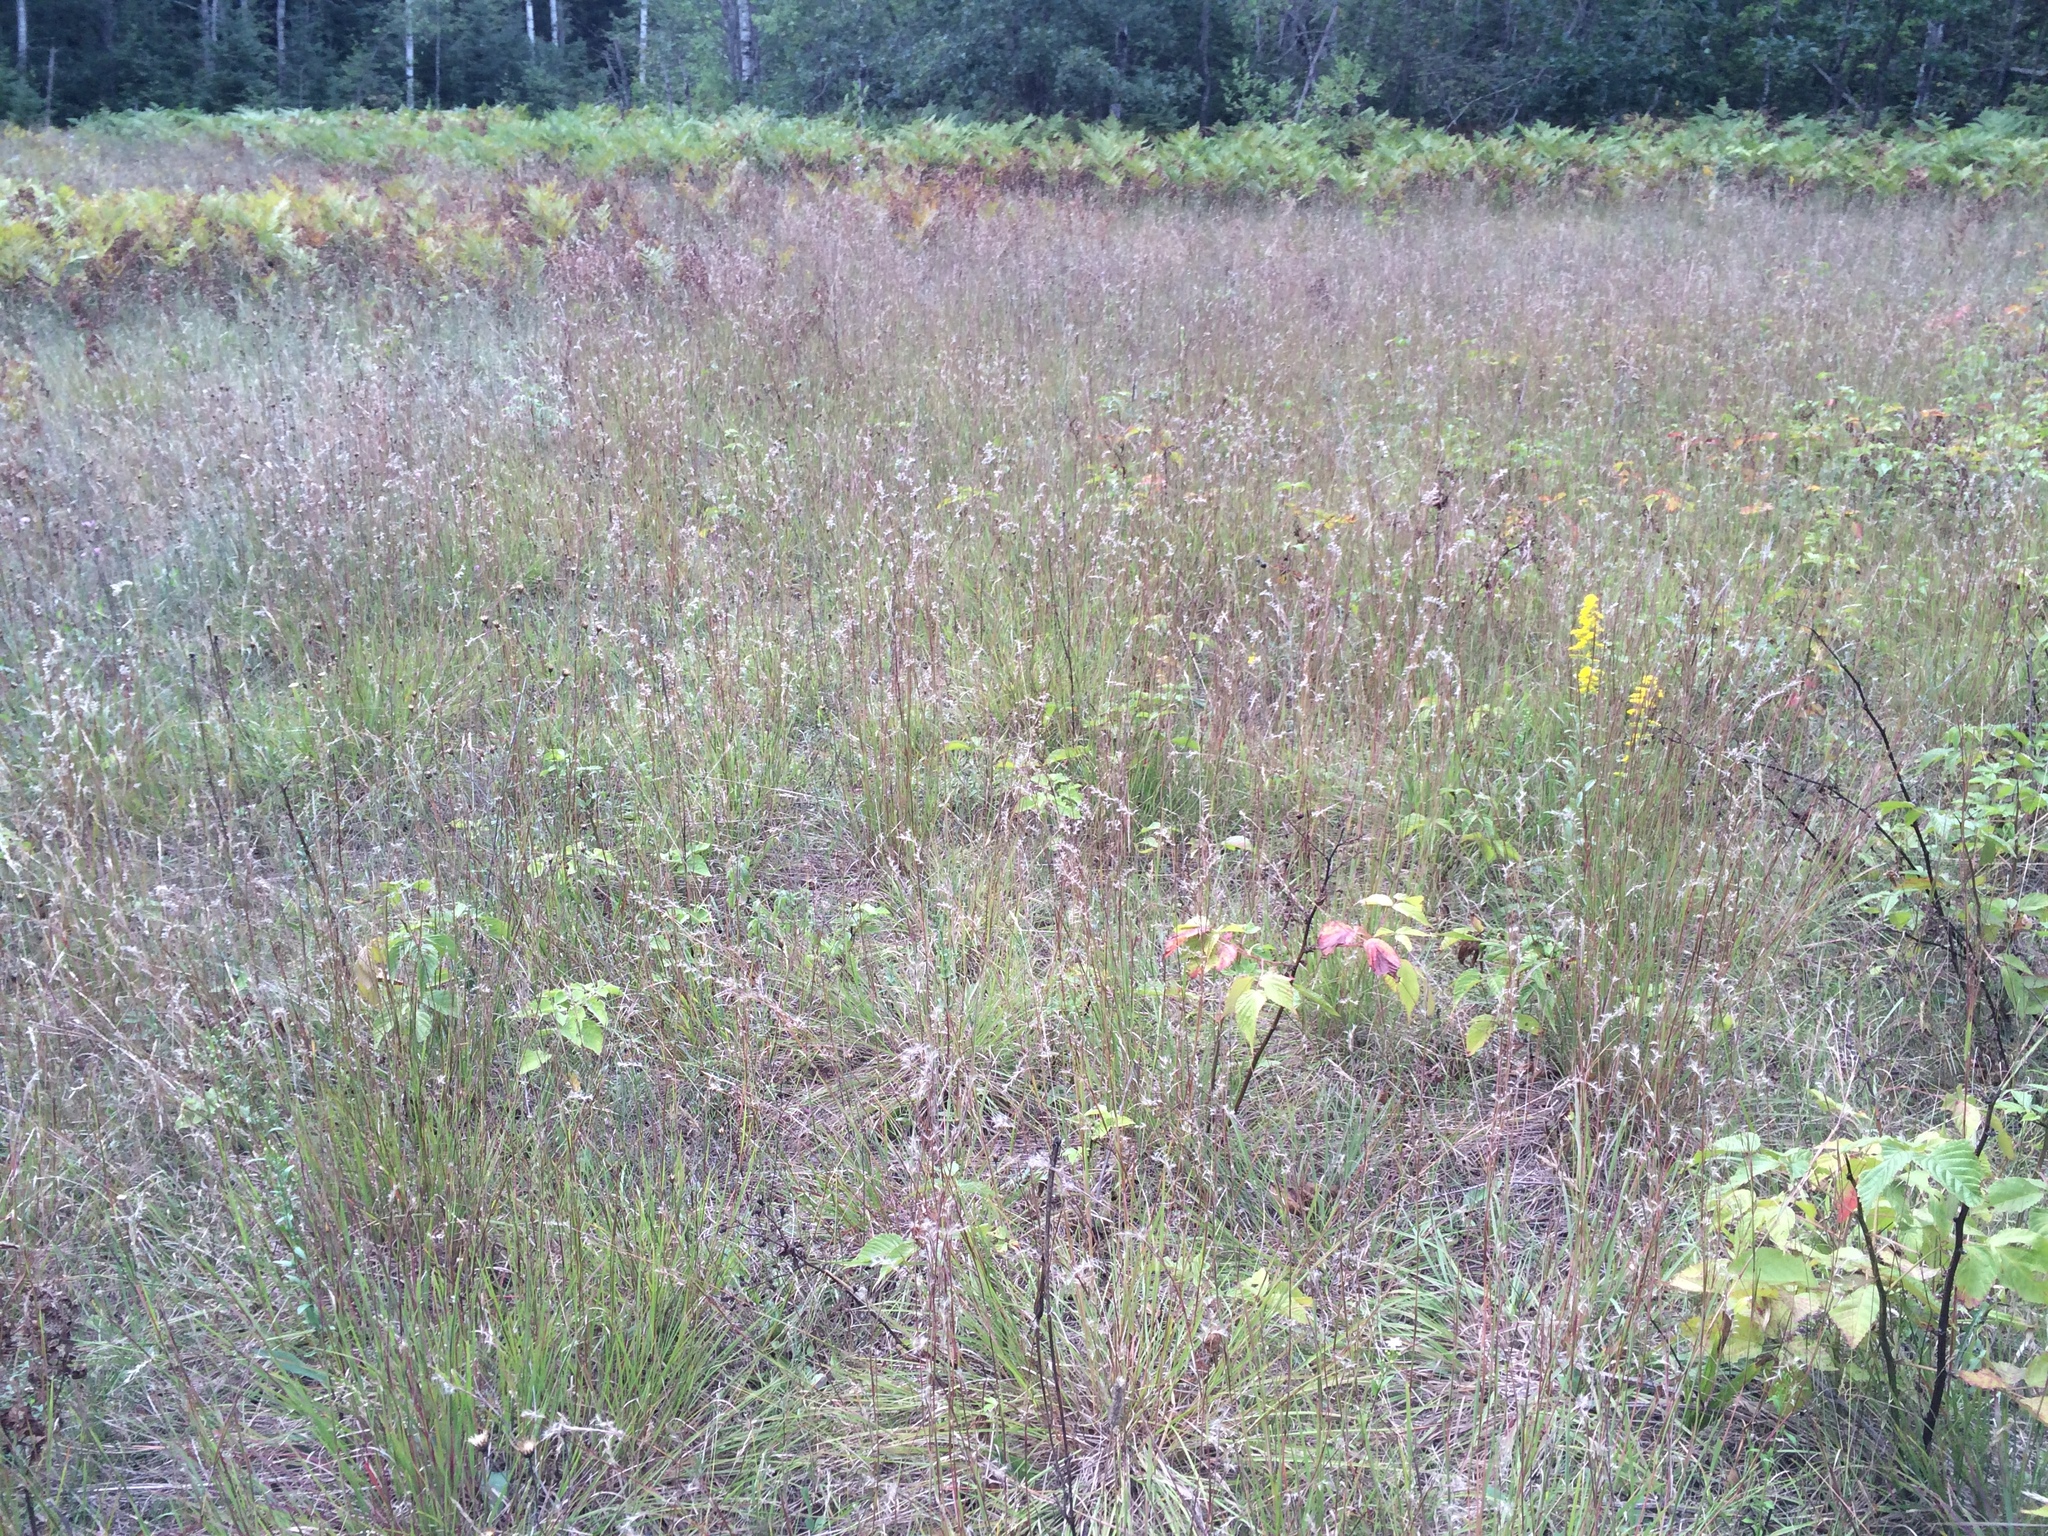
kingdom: Plantae
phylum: Tracheophyta
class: Liliopsida
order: Poales
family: Poaceae
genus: Schizachyrium
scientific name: Schizachyrium scoparium
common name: Little bluestem
